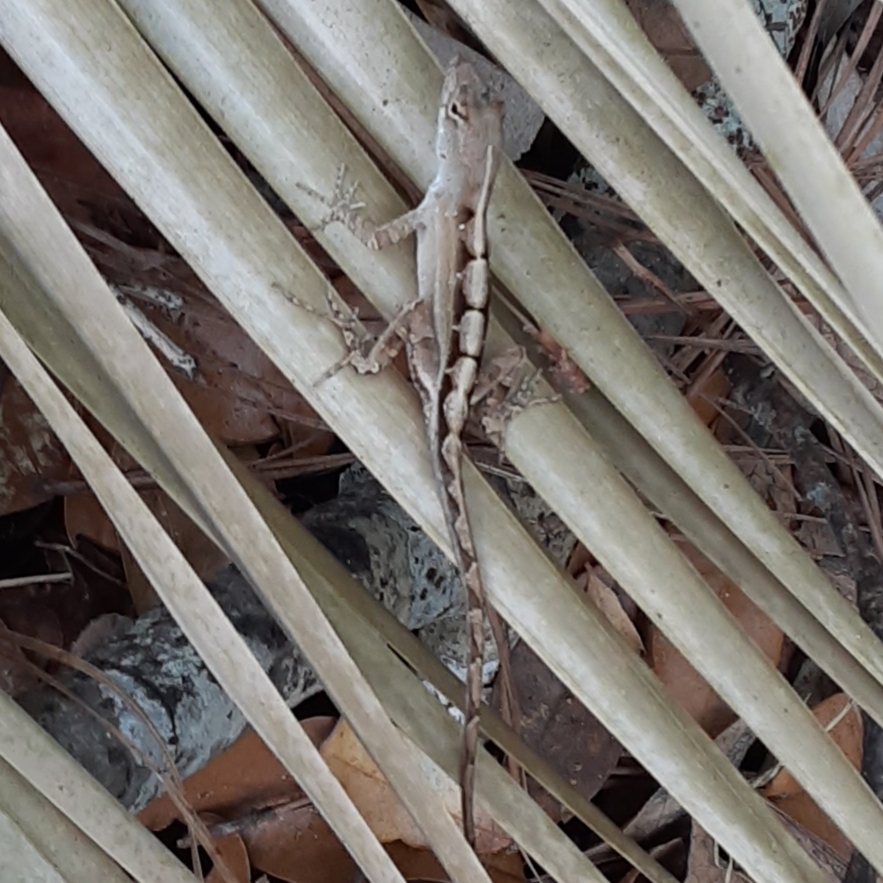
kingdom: Animalia
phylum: Chordata
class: Squamata
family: Dactyloidae
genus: Anolis
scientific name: Anolis sagrei
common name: Brown anole
